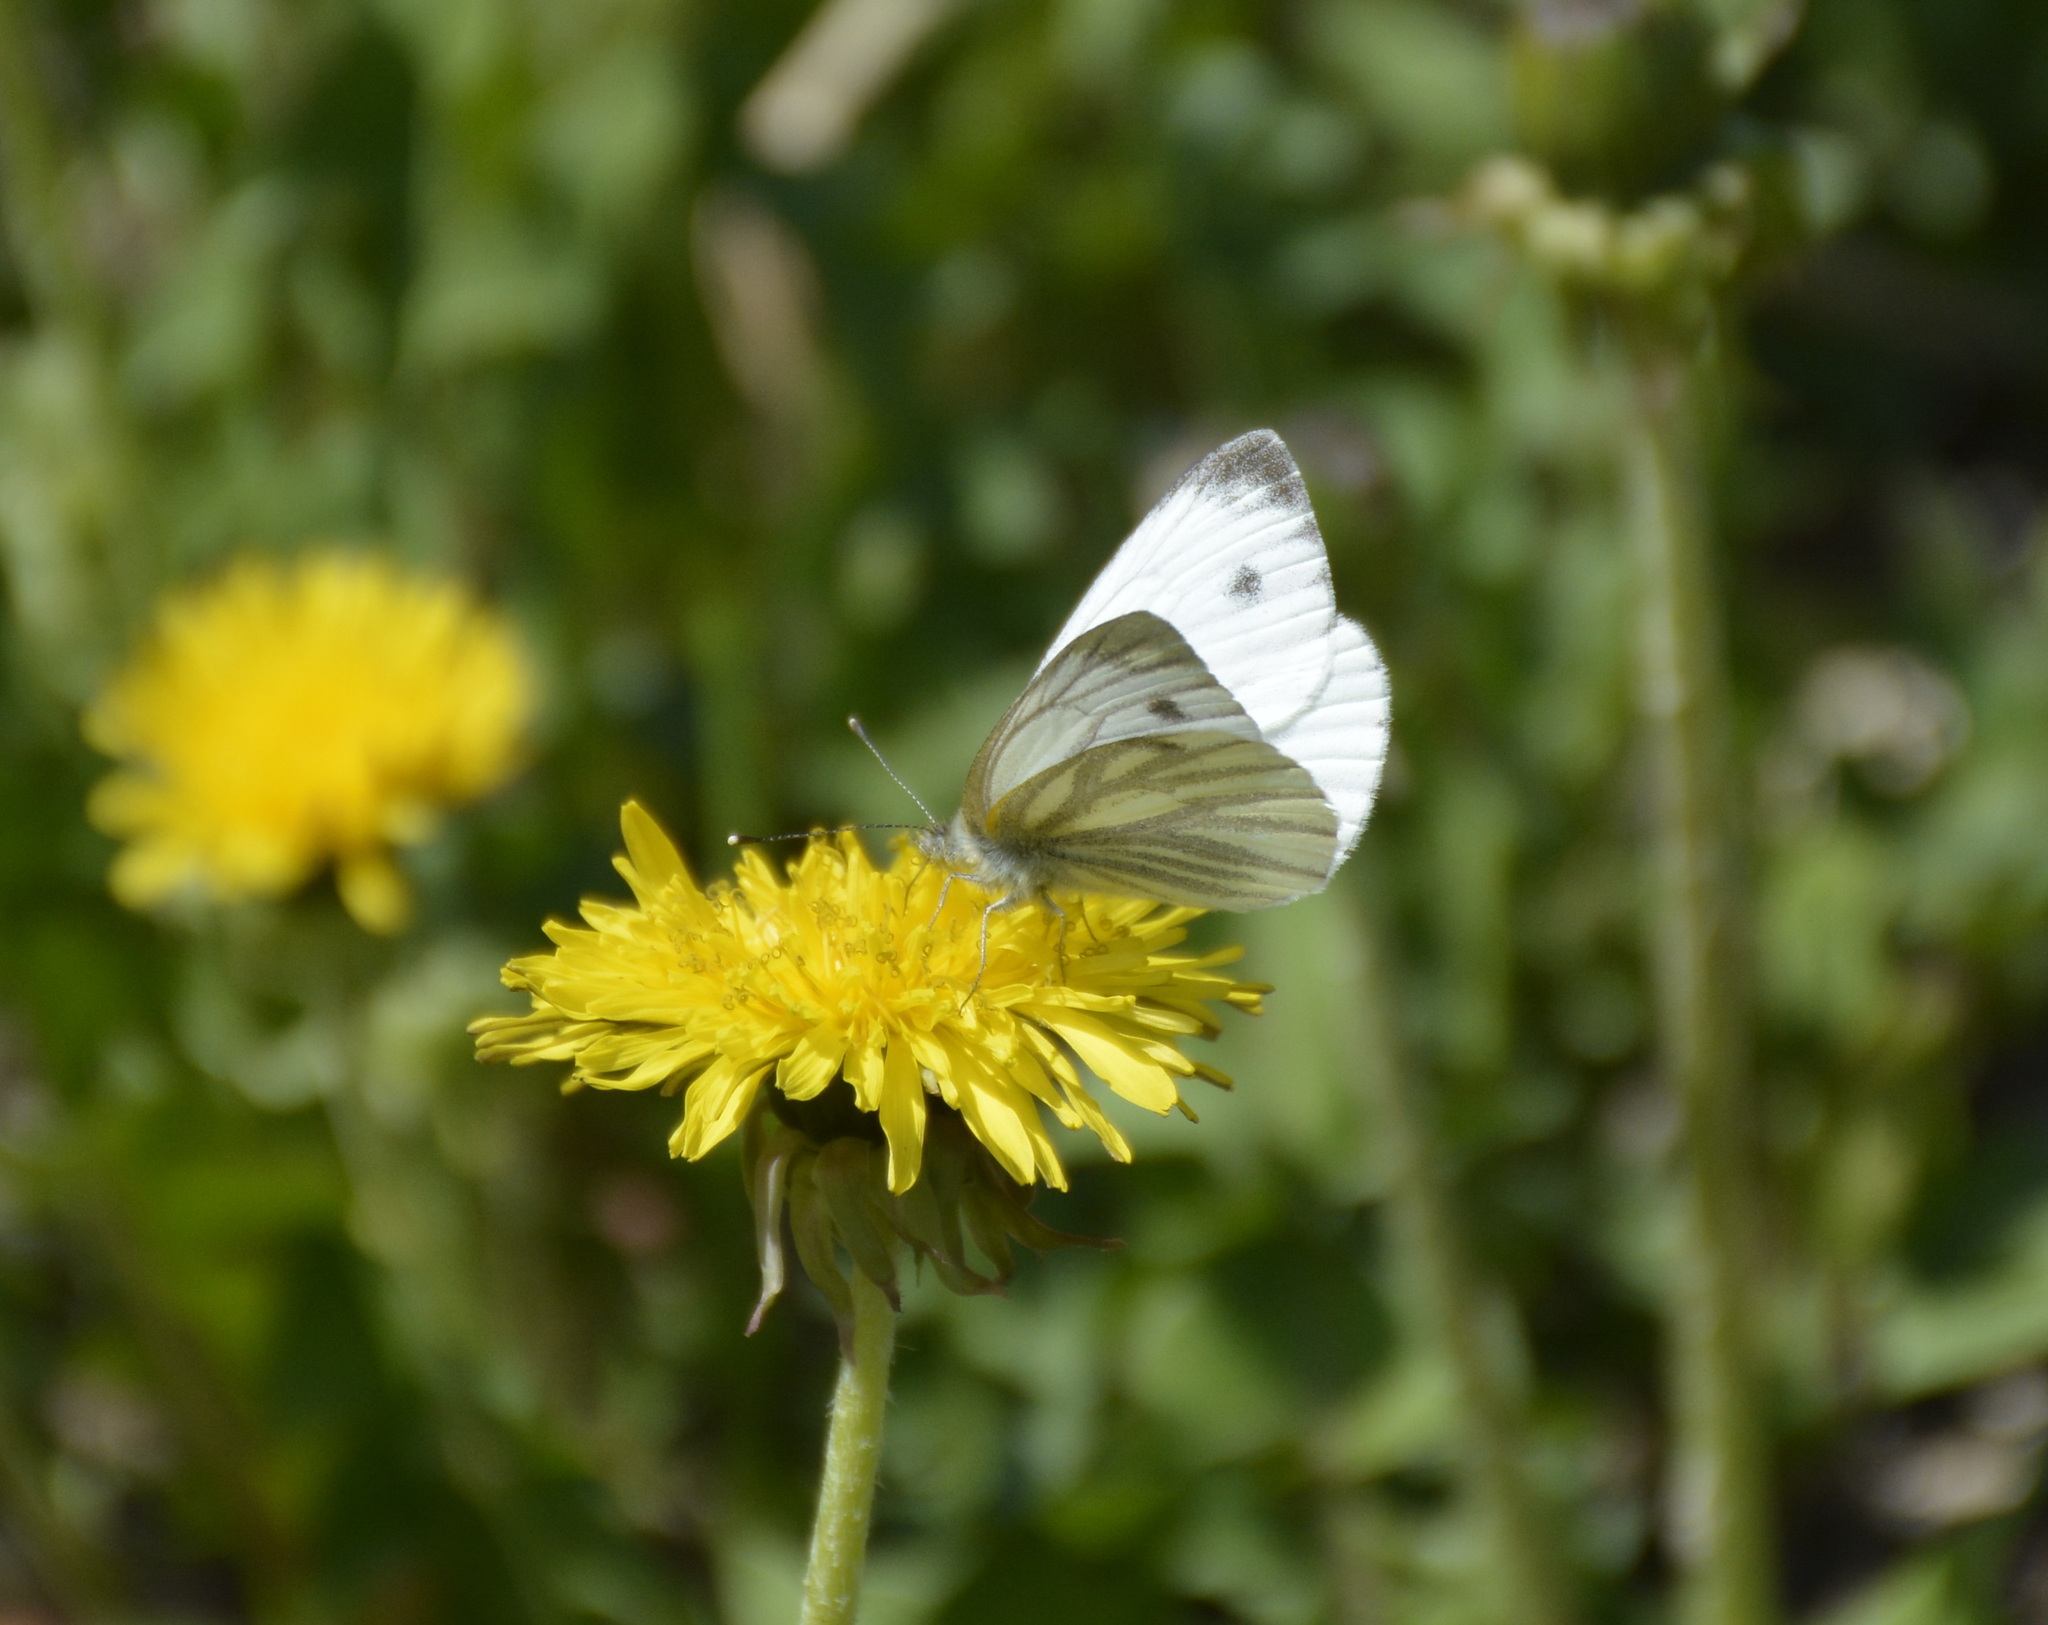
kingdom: Animalia
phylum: Arthropoda
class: Insecta
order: Lepidoptera
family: Pieridae
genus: Pieris
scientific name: Pieris napi
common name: Green-veined white
